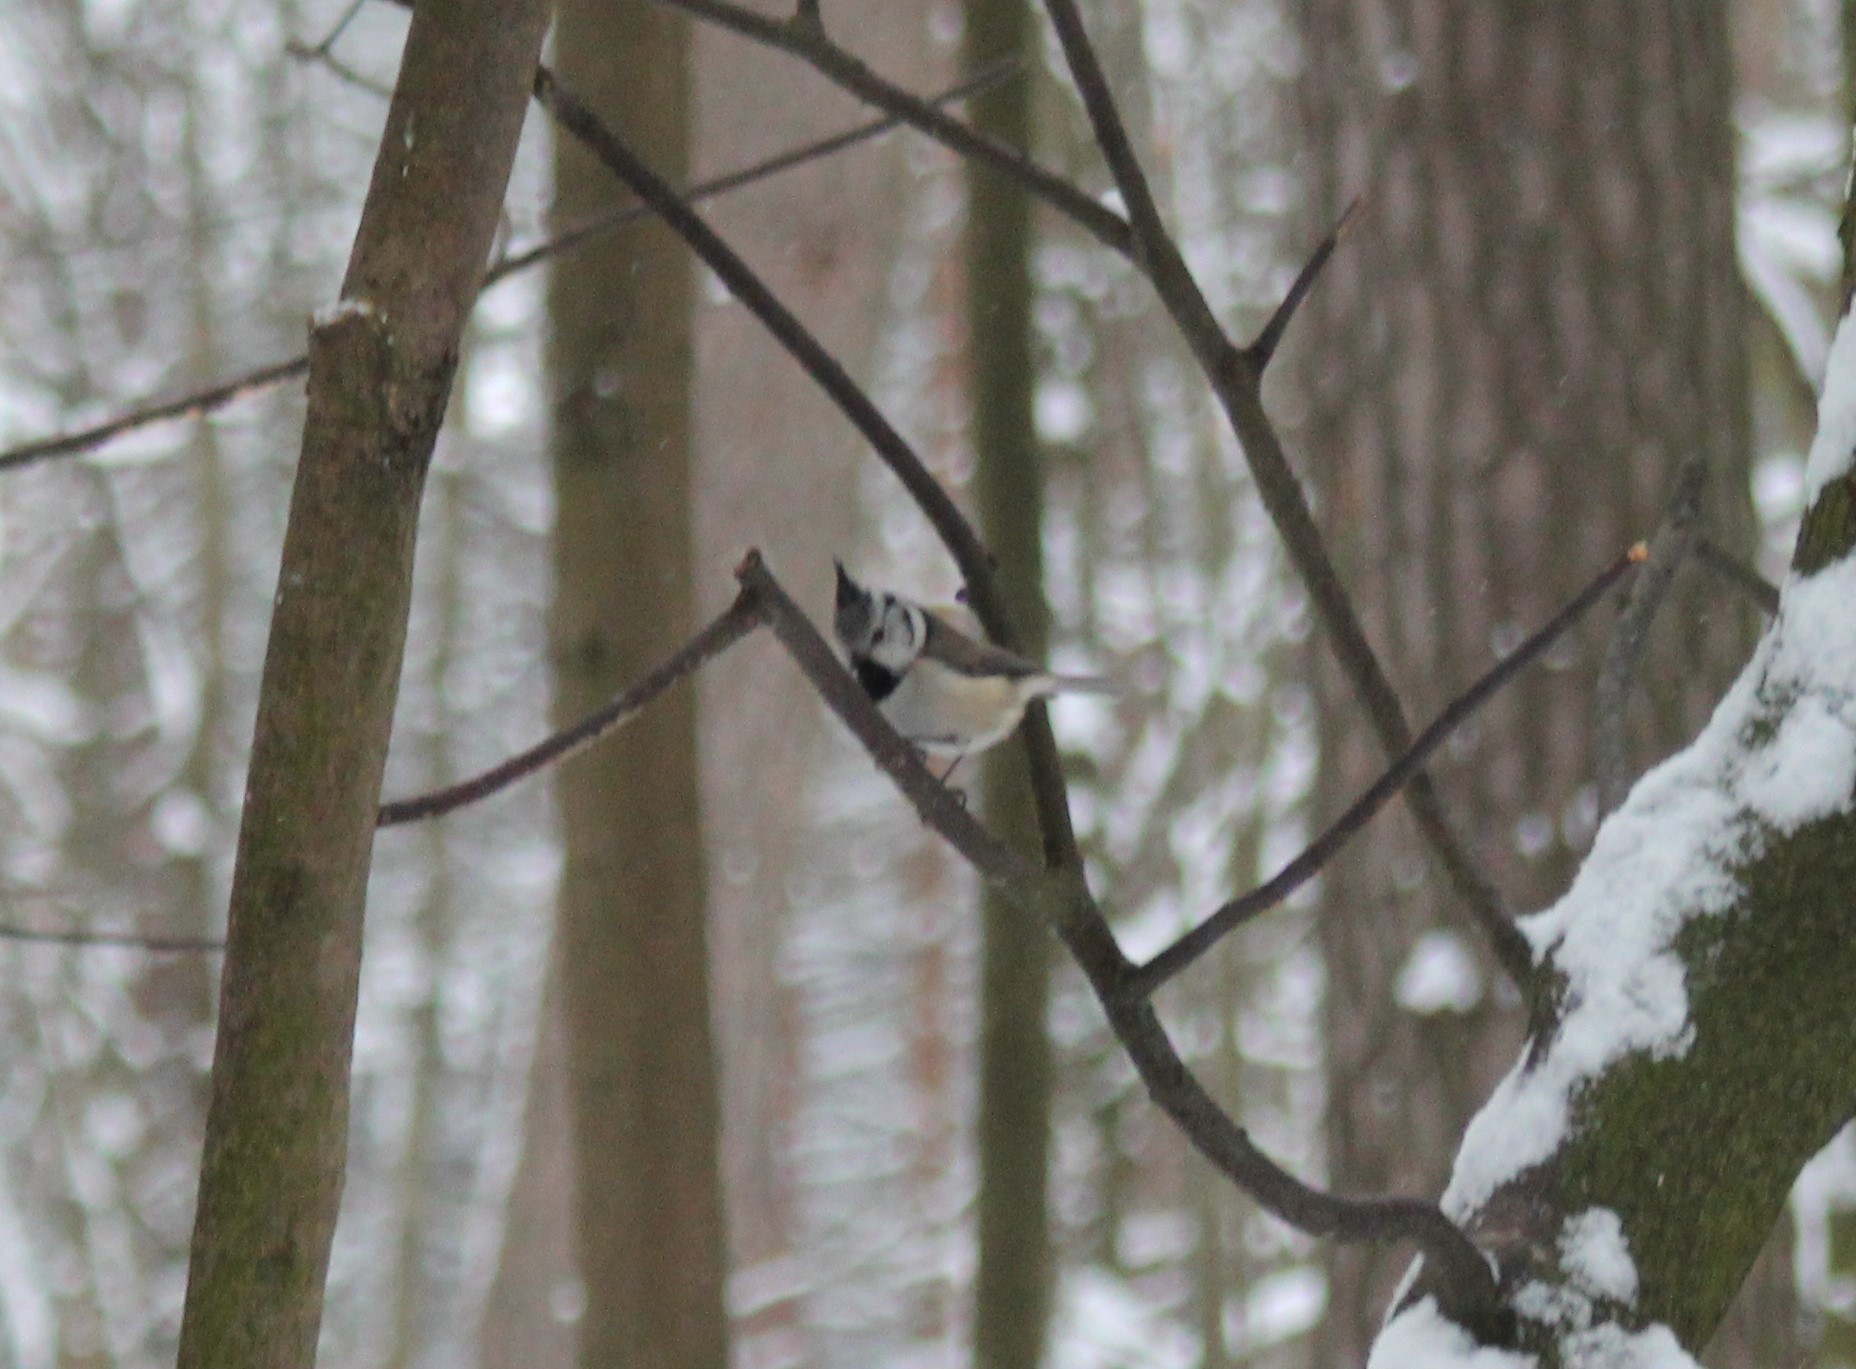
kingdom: Animalia
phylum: Chordata
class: Aves
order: Passeriformes
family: Paridae
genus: Lophophanes
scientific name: Lophophanes cristatus
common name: European crested tit
